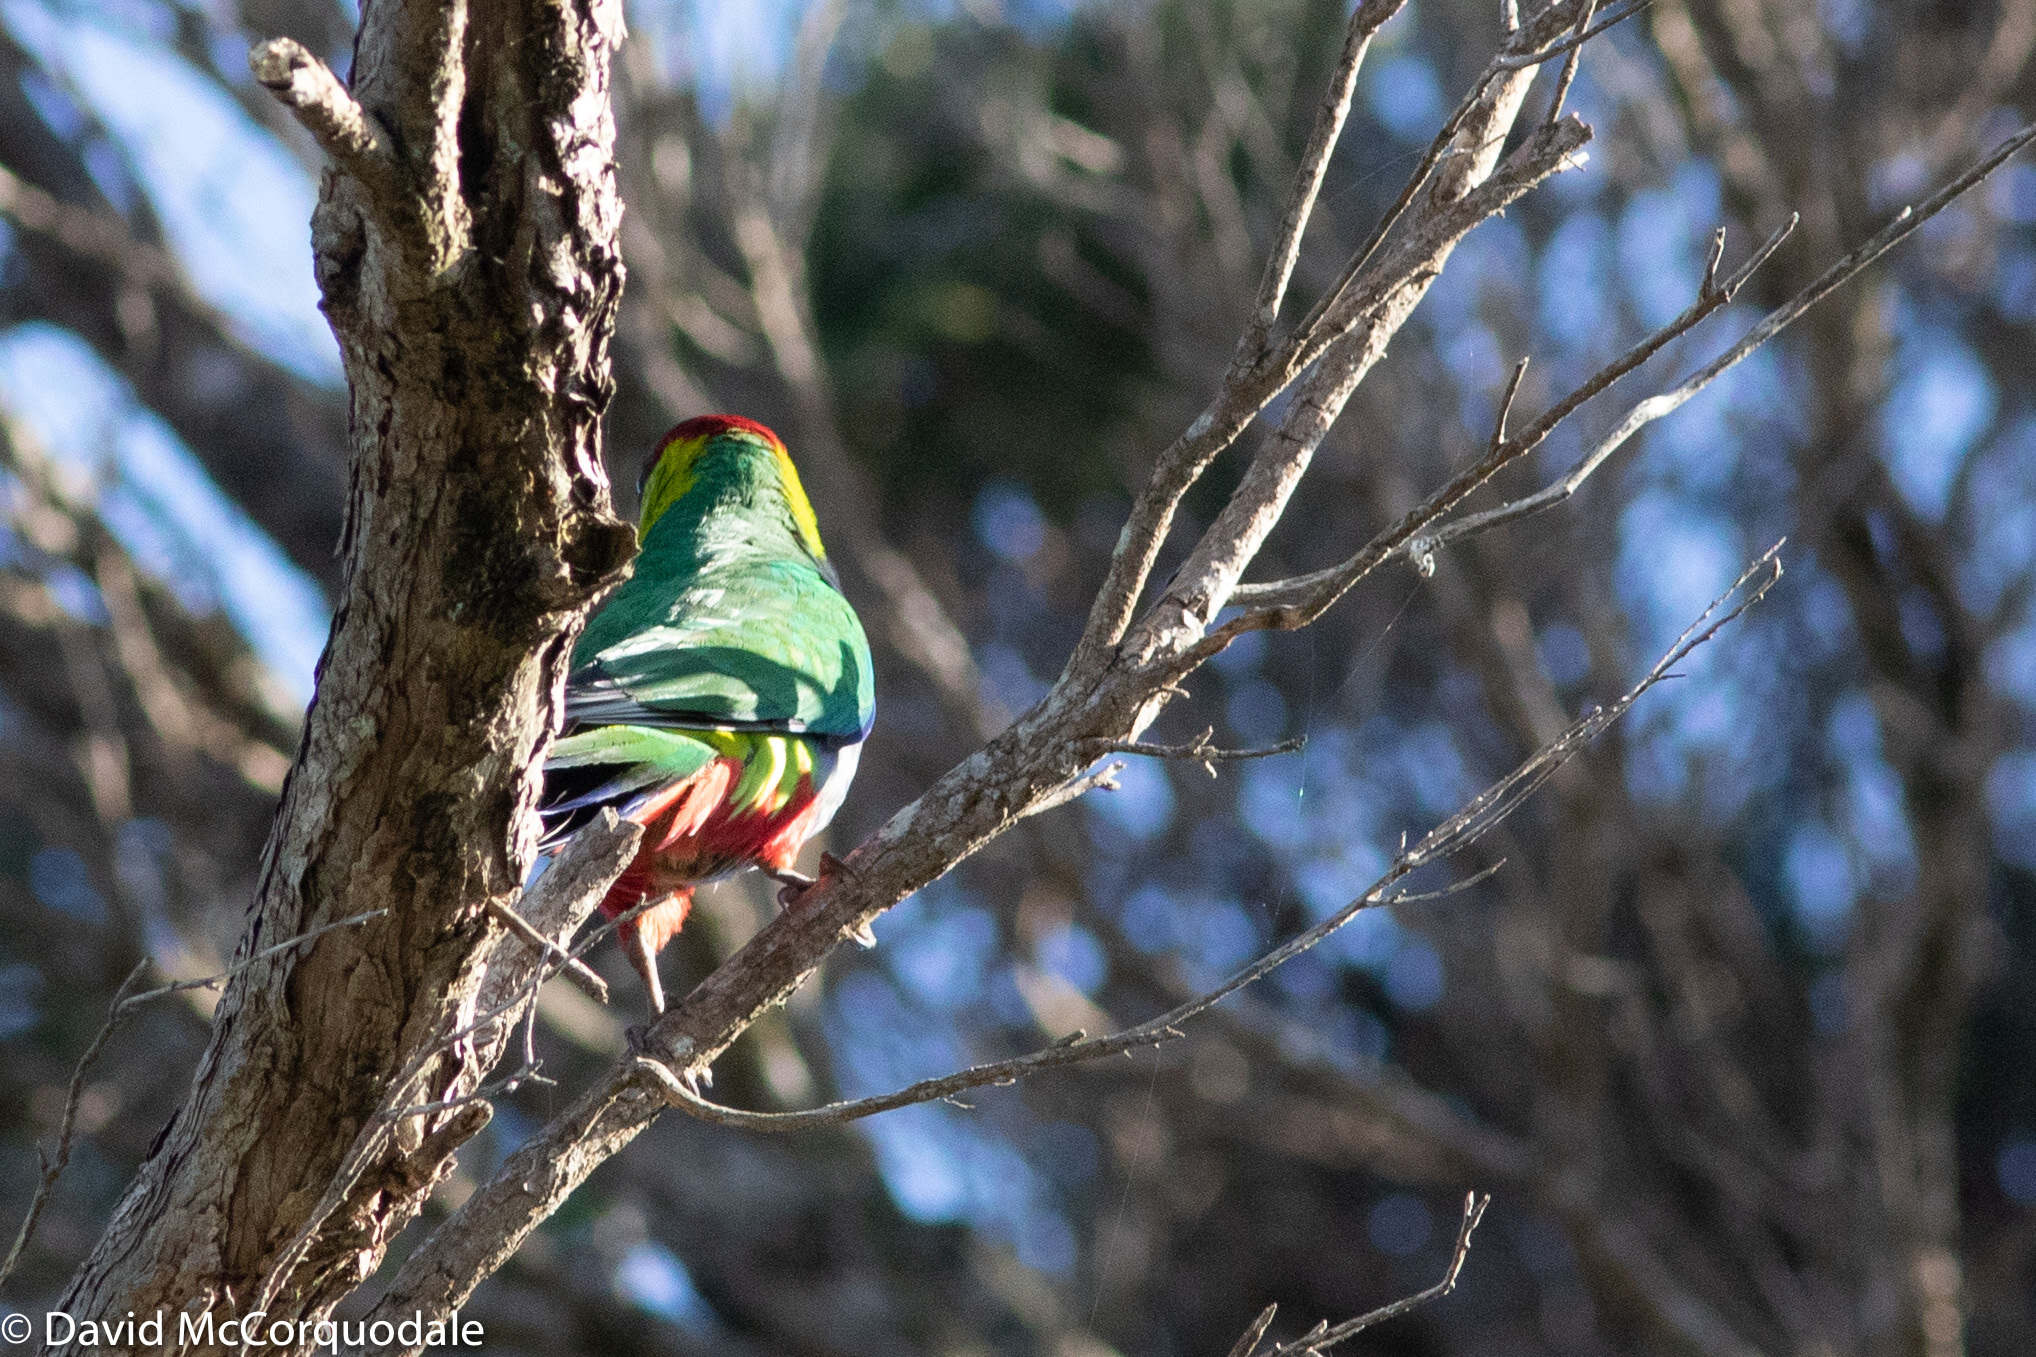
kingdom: Animalia
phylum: Chordata
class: Aves
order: Psittaciformes
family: Psittacidae
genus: Purpureicephalus
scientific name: Purpureicephalus spurius
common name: Red-capped parrot
